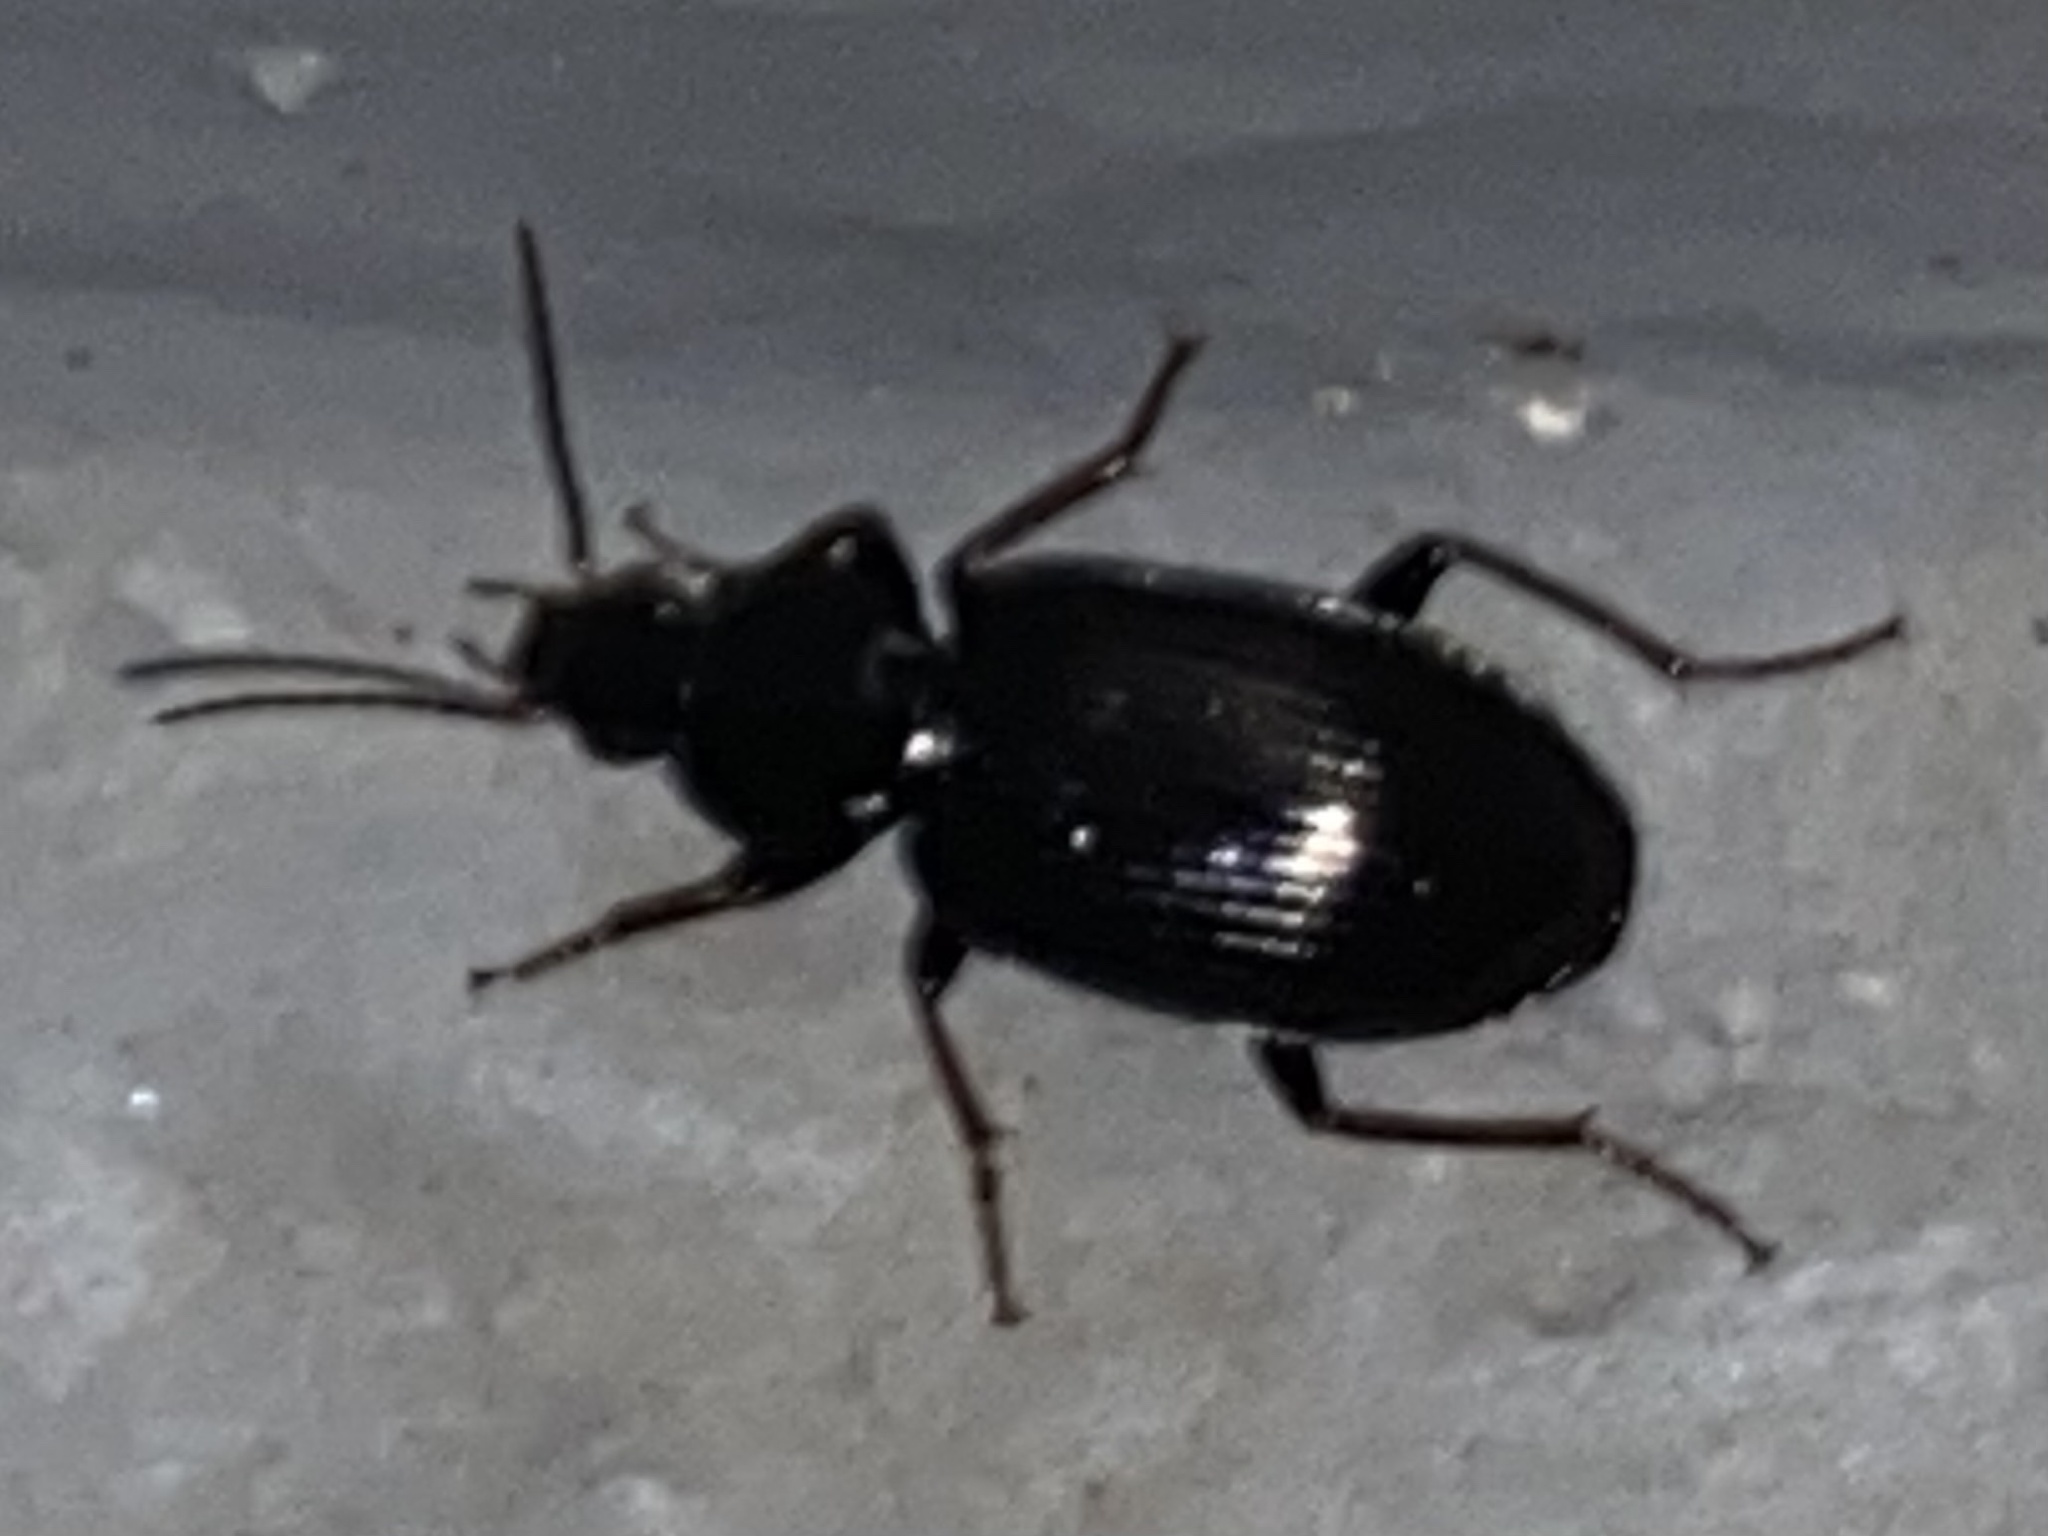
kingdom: Animalia
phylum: Arthropoda
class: Insecta
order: Coleoptera
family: Carabidae
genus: Agonum
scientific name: Agonum punctiforme
